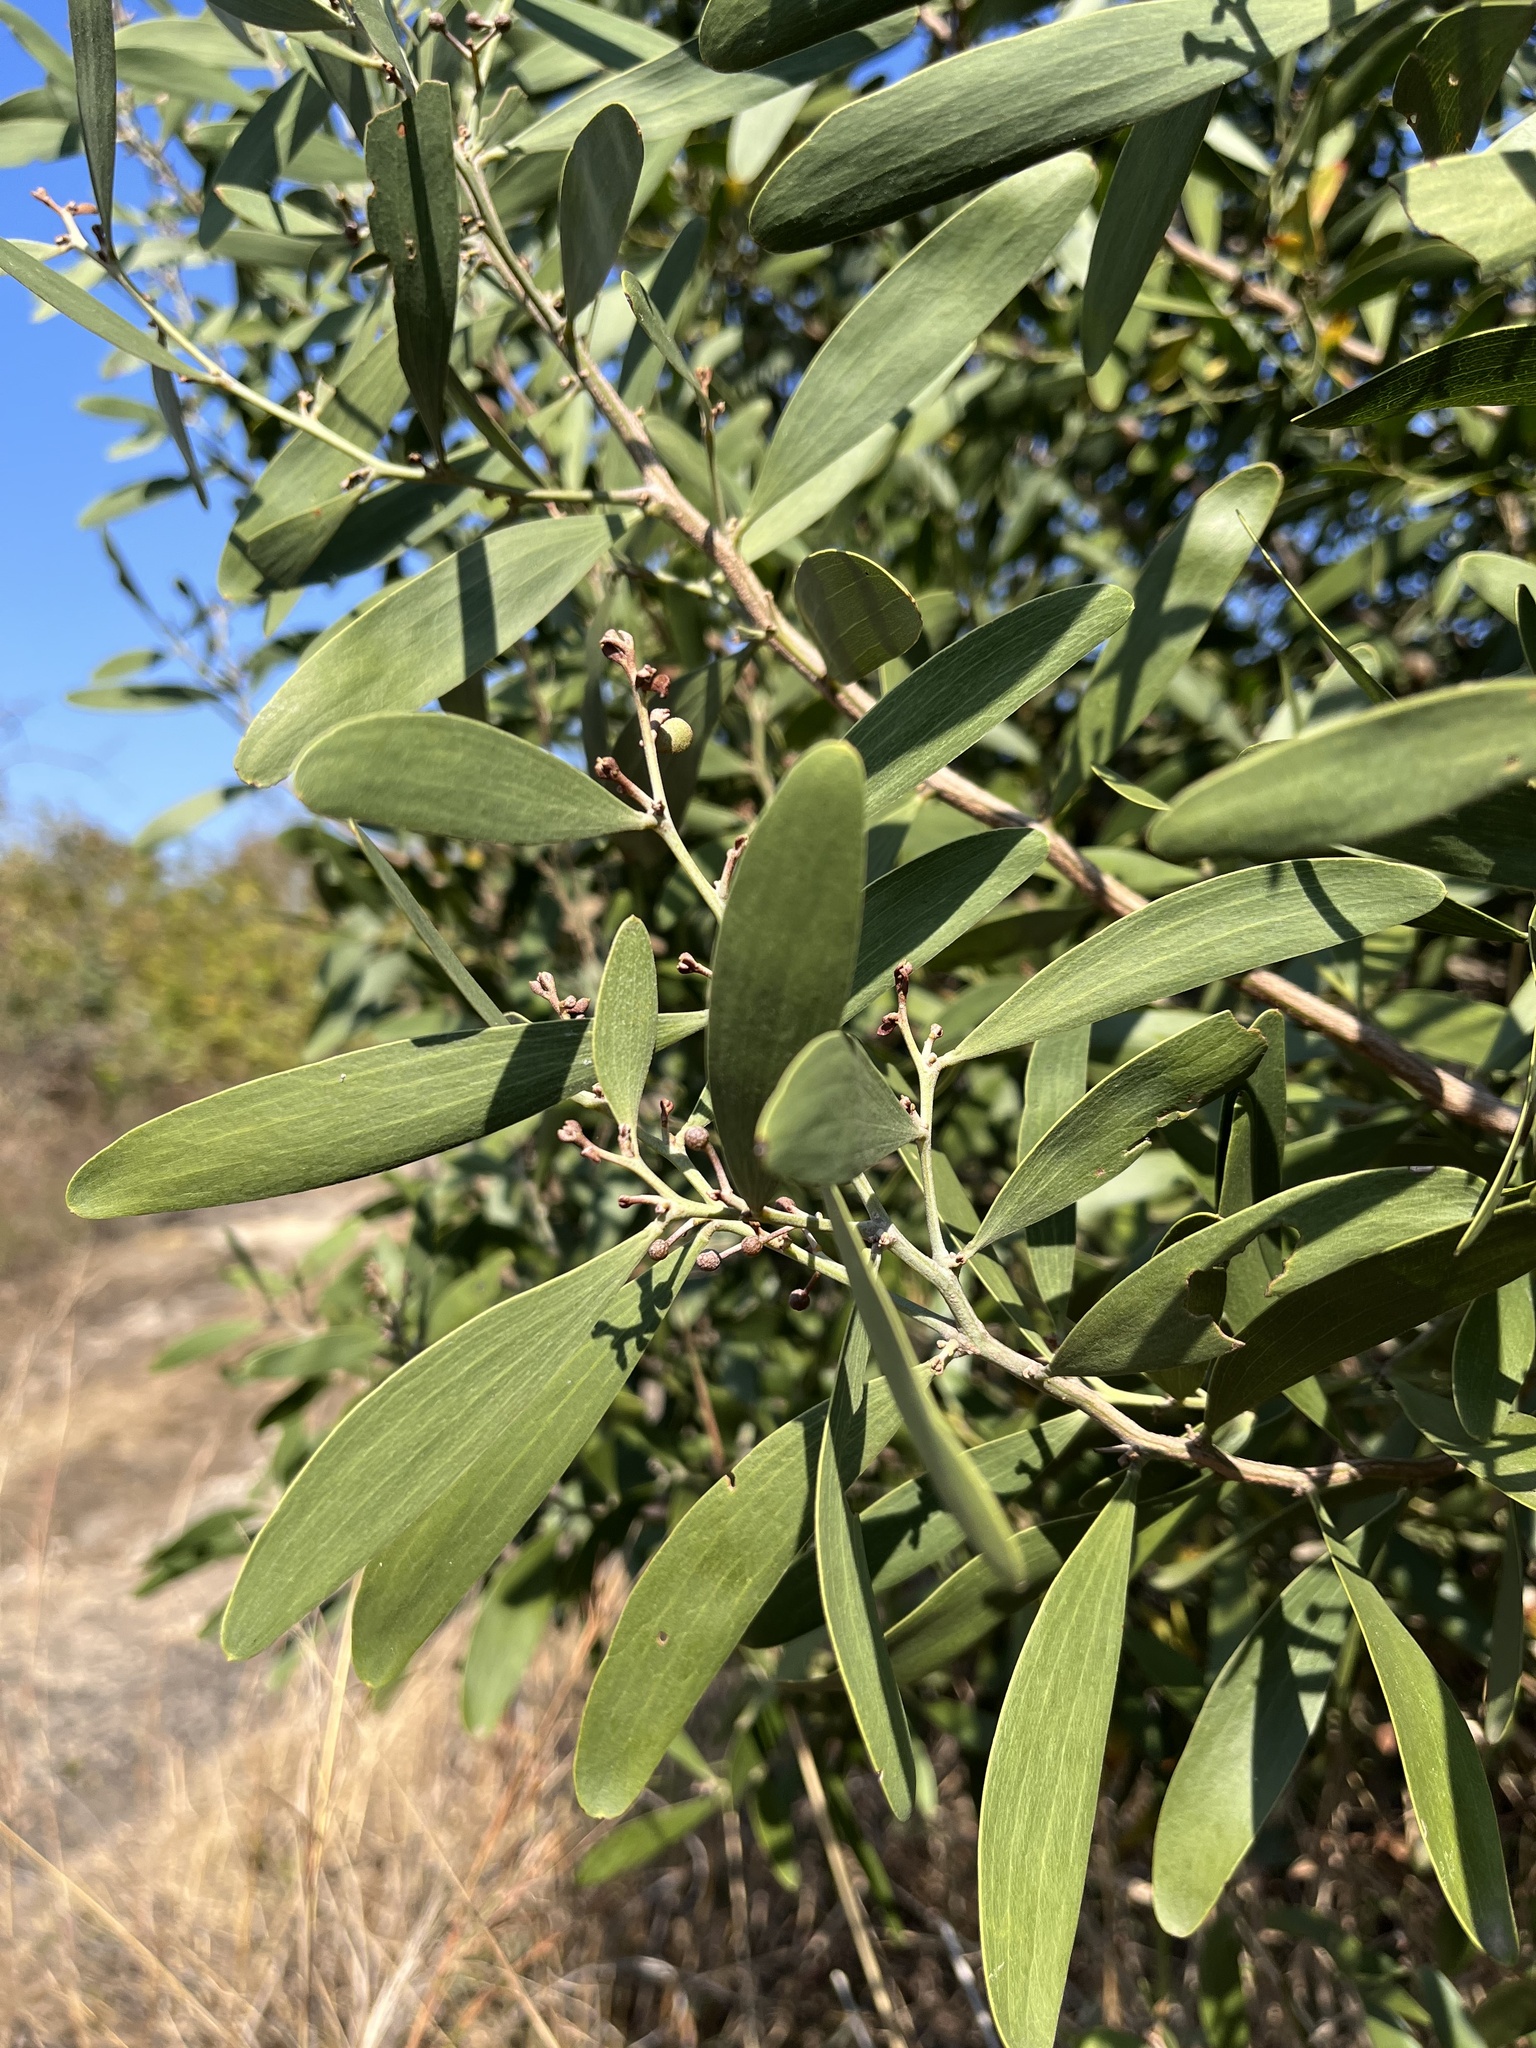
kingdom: Plantae
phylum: Tracheophyta
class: Magnoliopsida
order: Fabales
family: Fabaceae
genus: Acacia
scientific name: Acacia melanoxylon
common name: Blackwood
